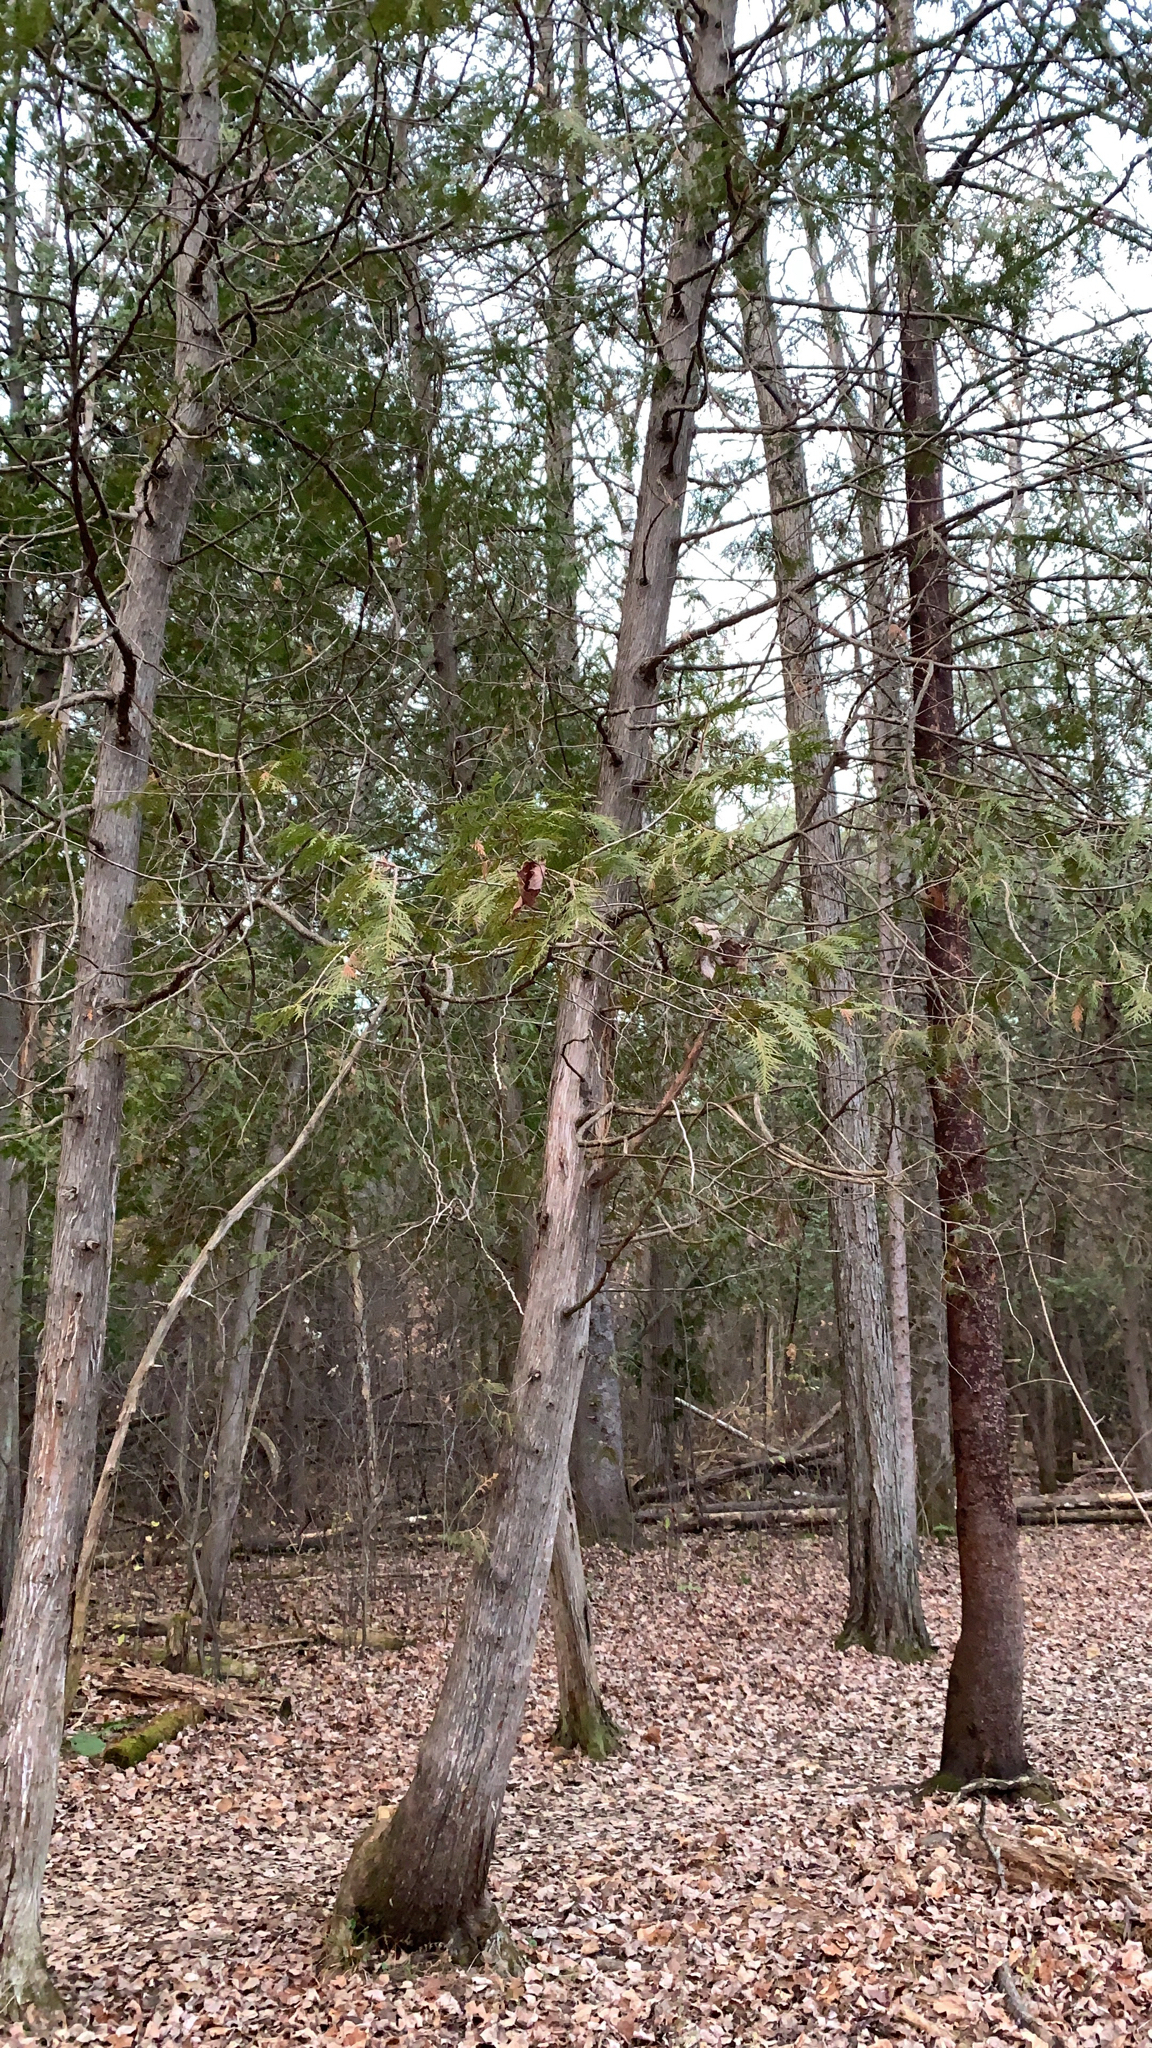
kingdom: Plantae
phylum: Tracheophyta
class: Pinopsida
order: Pinales
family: Cupressaceae
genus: Thuja
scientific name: Thuja occidentalis
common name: Northern white-cedar
